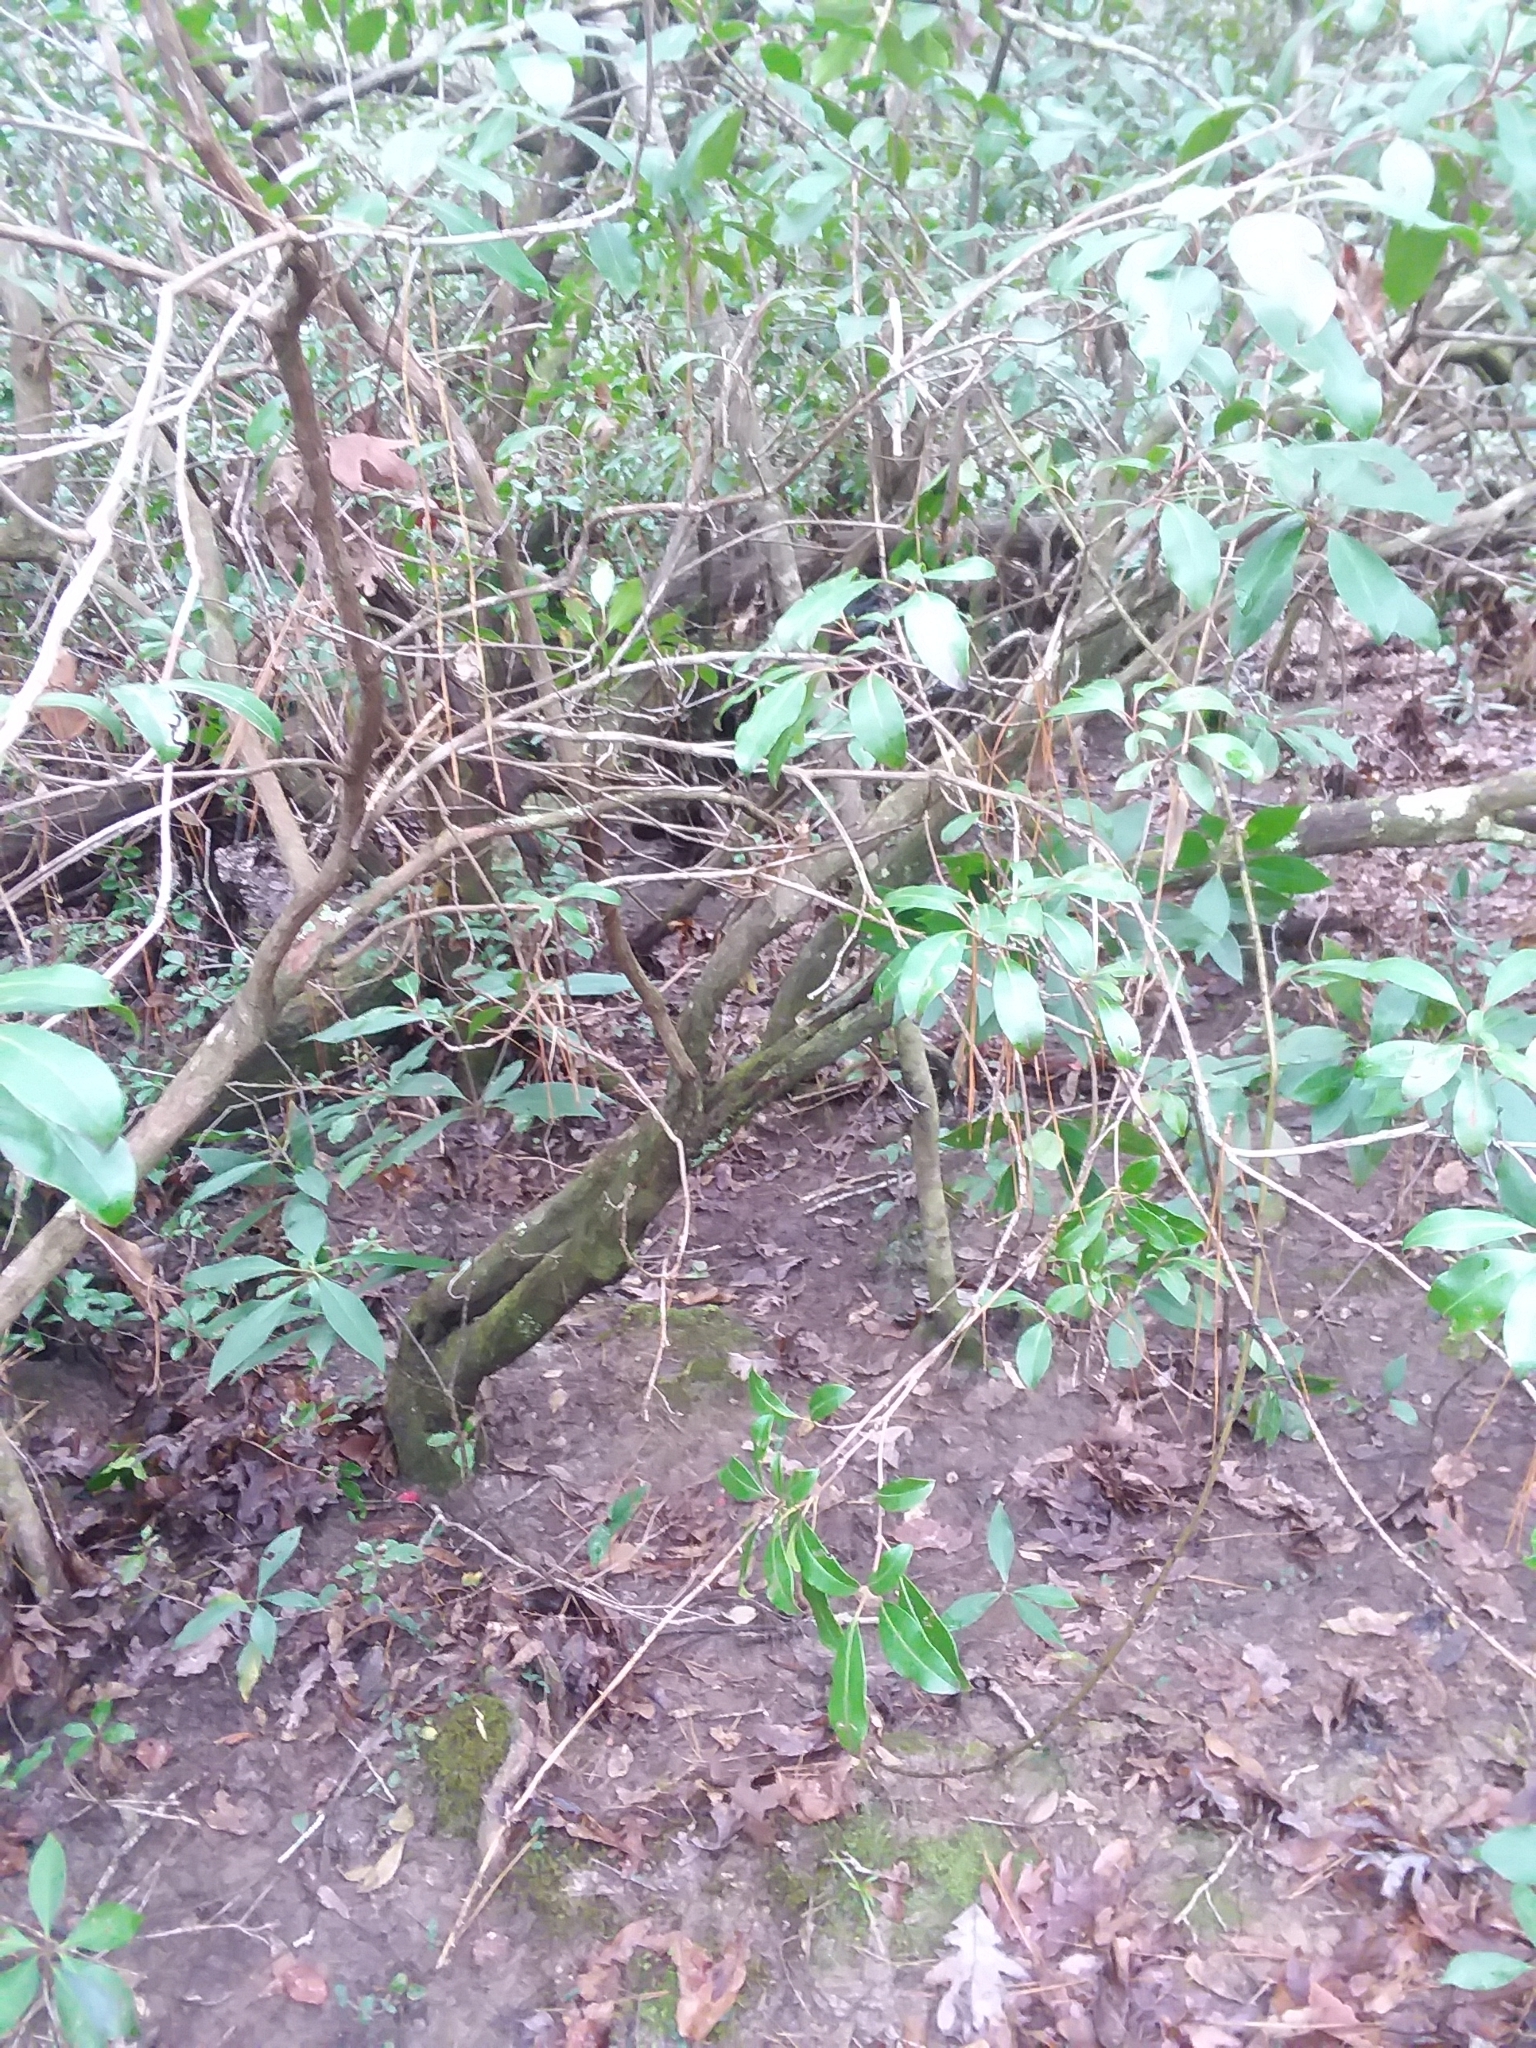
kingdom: Plantae
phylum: Tracheophyta
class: Magnoliopsida
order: Ericales
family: Ericaceae
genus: Kalmia
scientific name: Kalmia latifolia
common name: Mountain-laurel
